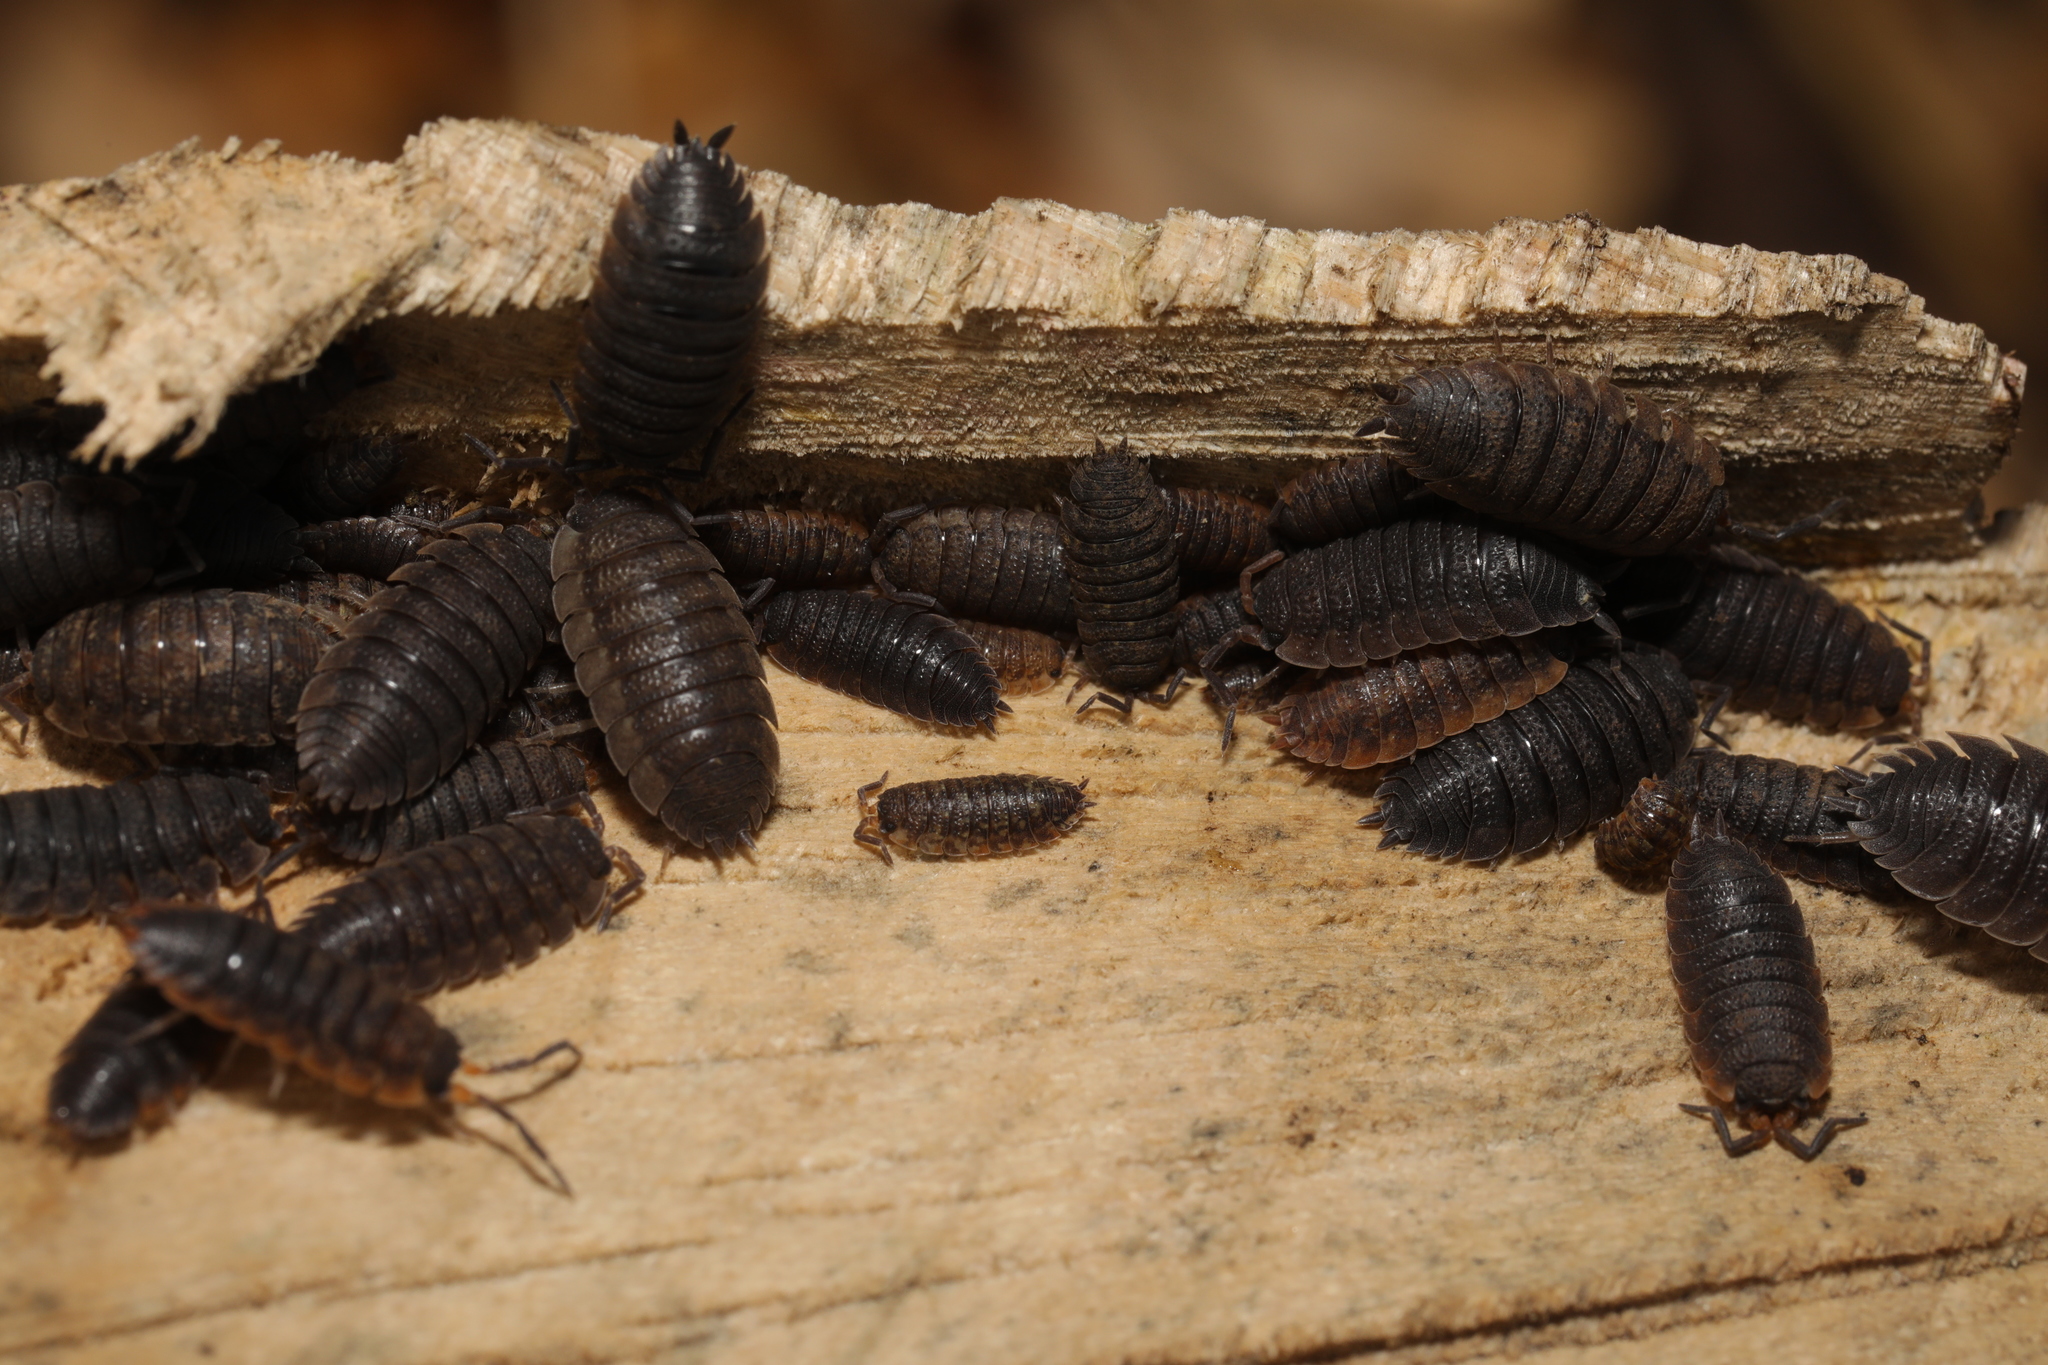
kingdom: Animalia
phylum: Arthropoda
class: Malacostraca
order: Isopoda
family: Porcellionidae
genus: Porcellio
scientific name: Porcellio scaber
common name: Common rough woodlouse
